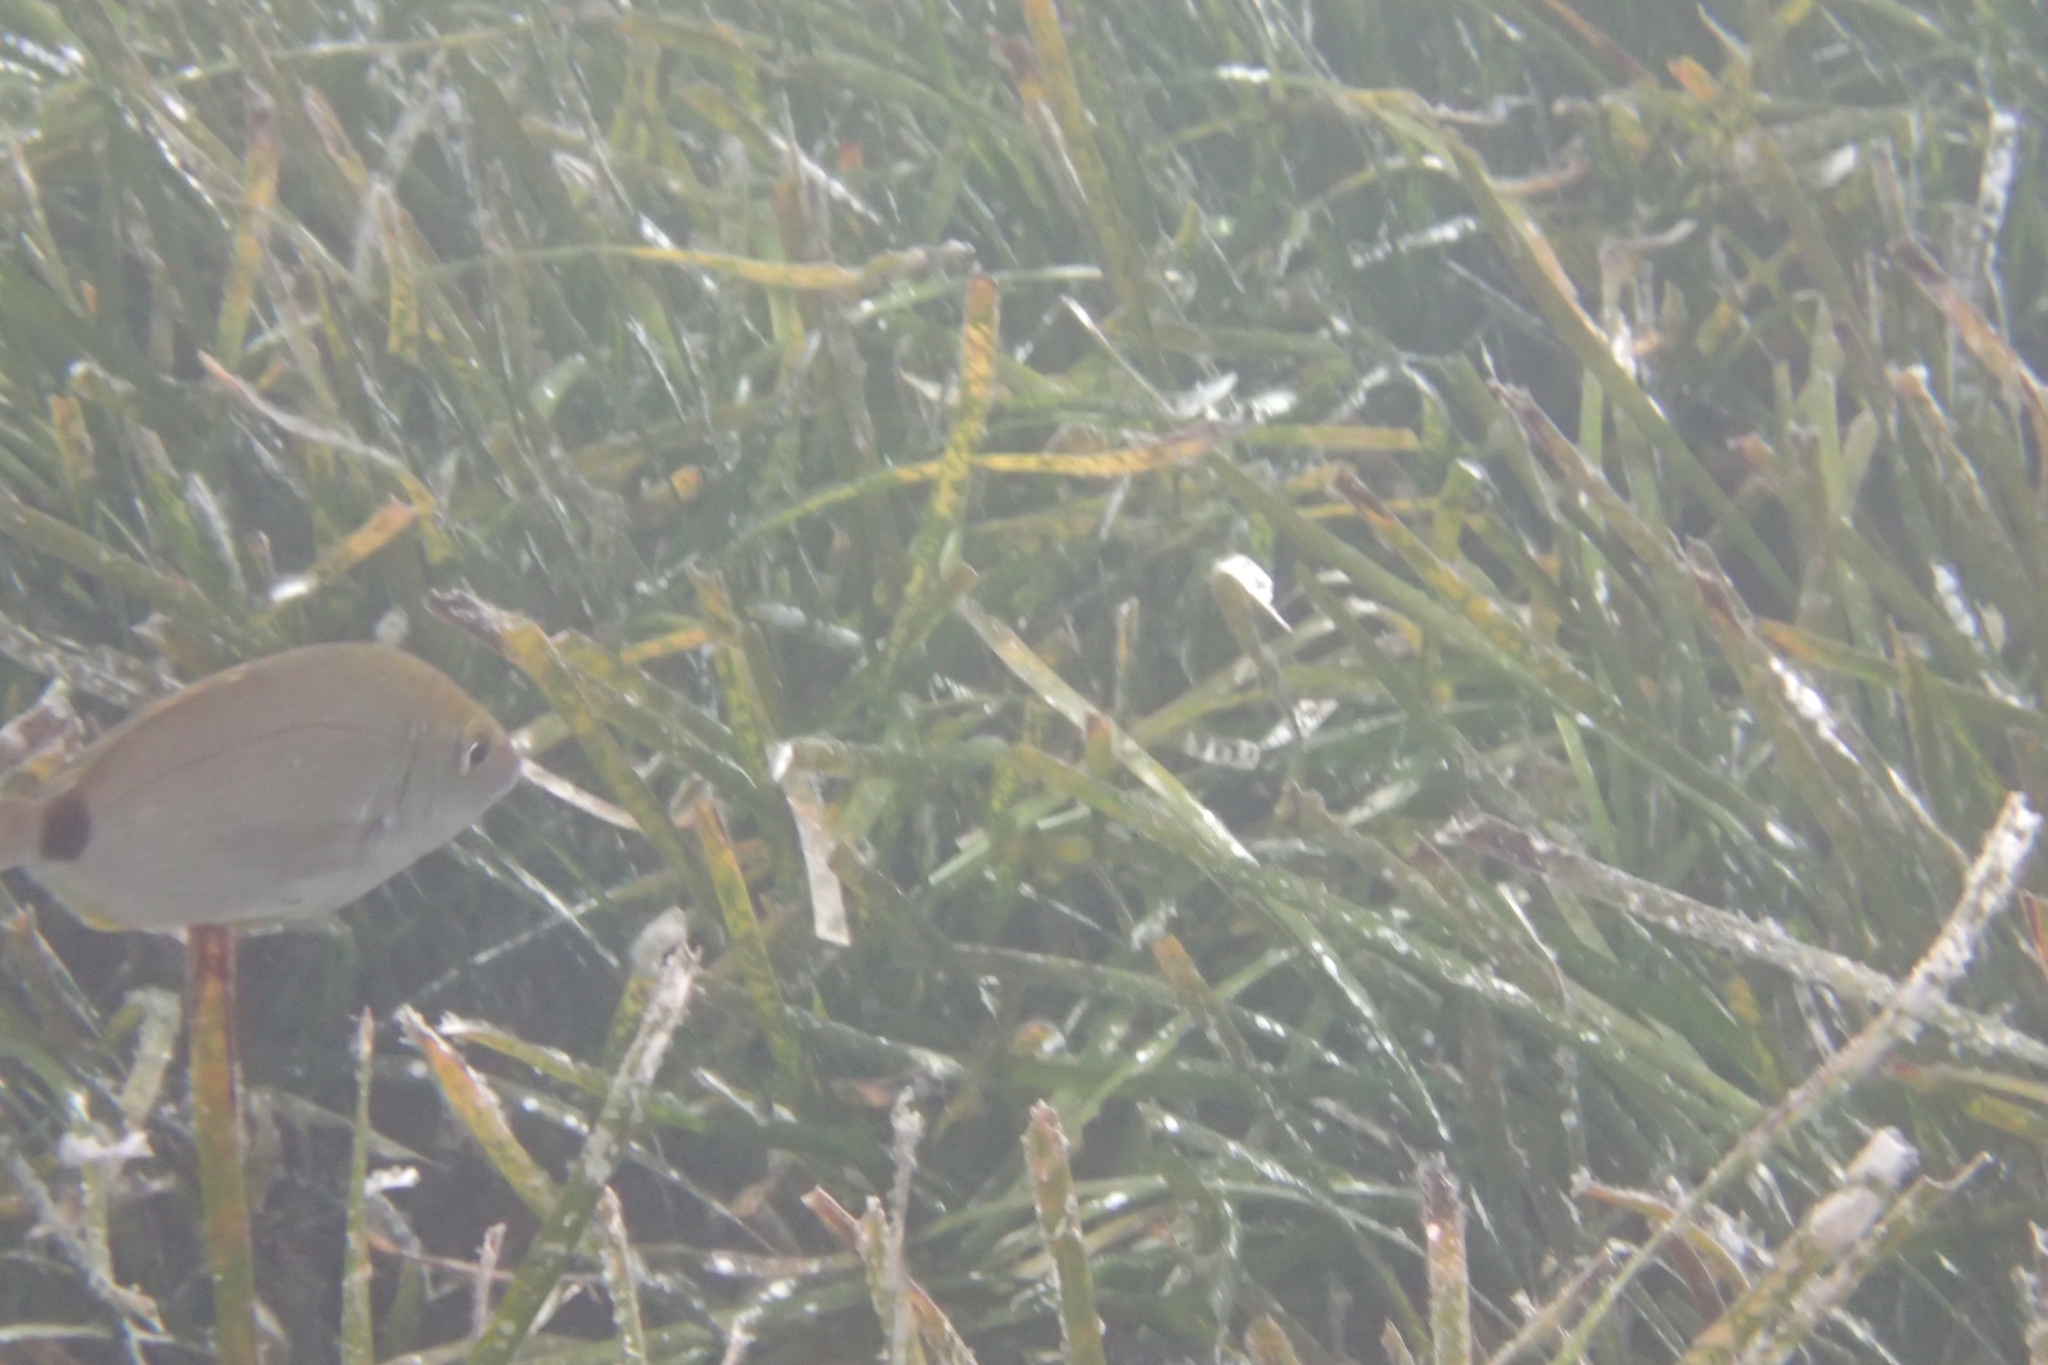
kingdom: Animalia
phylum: Chordata
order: Perciformes
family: Sparidae
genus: Diplodus
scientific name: Diplodus annularis
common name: Annular seabream
